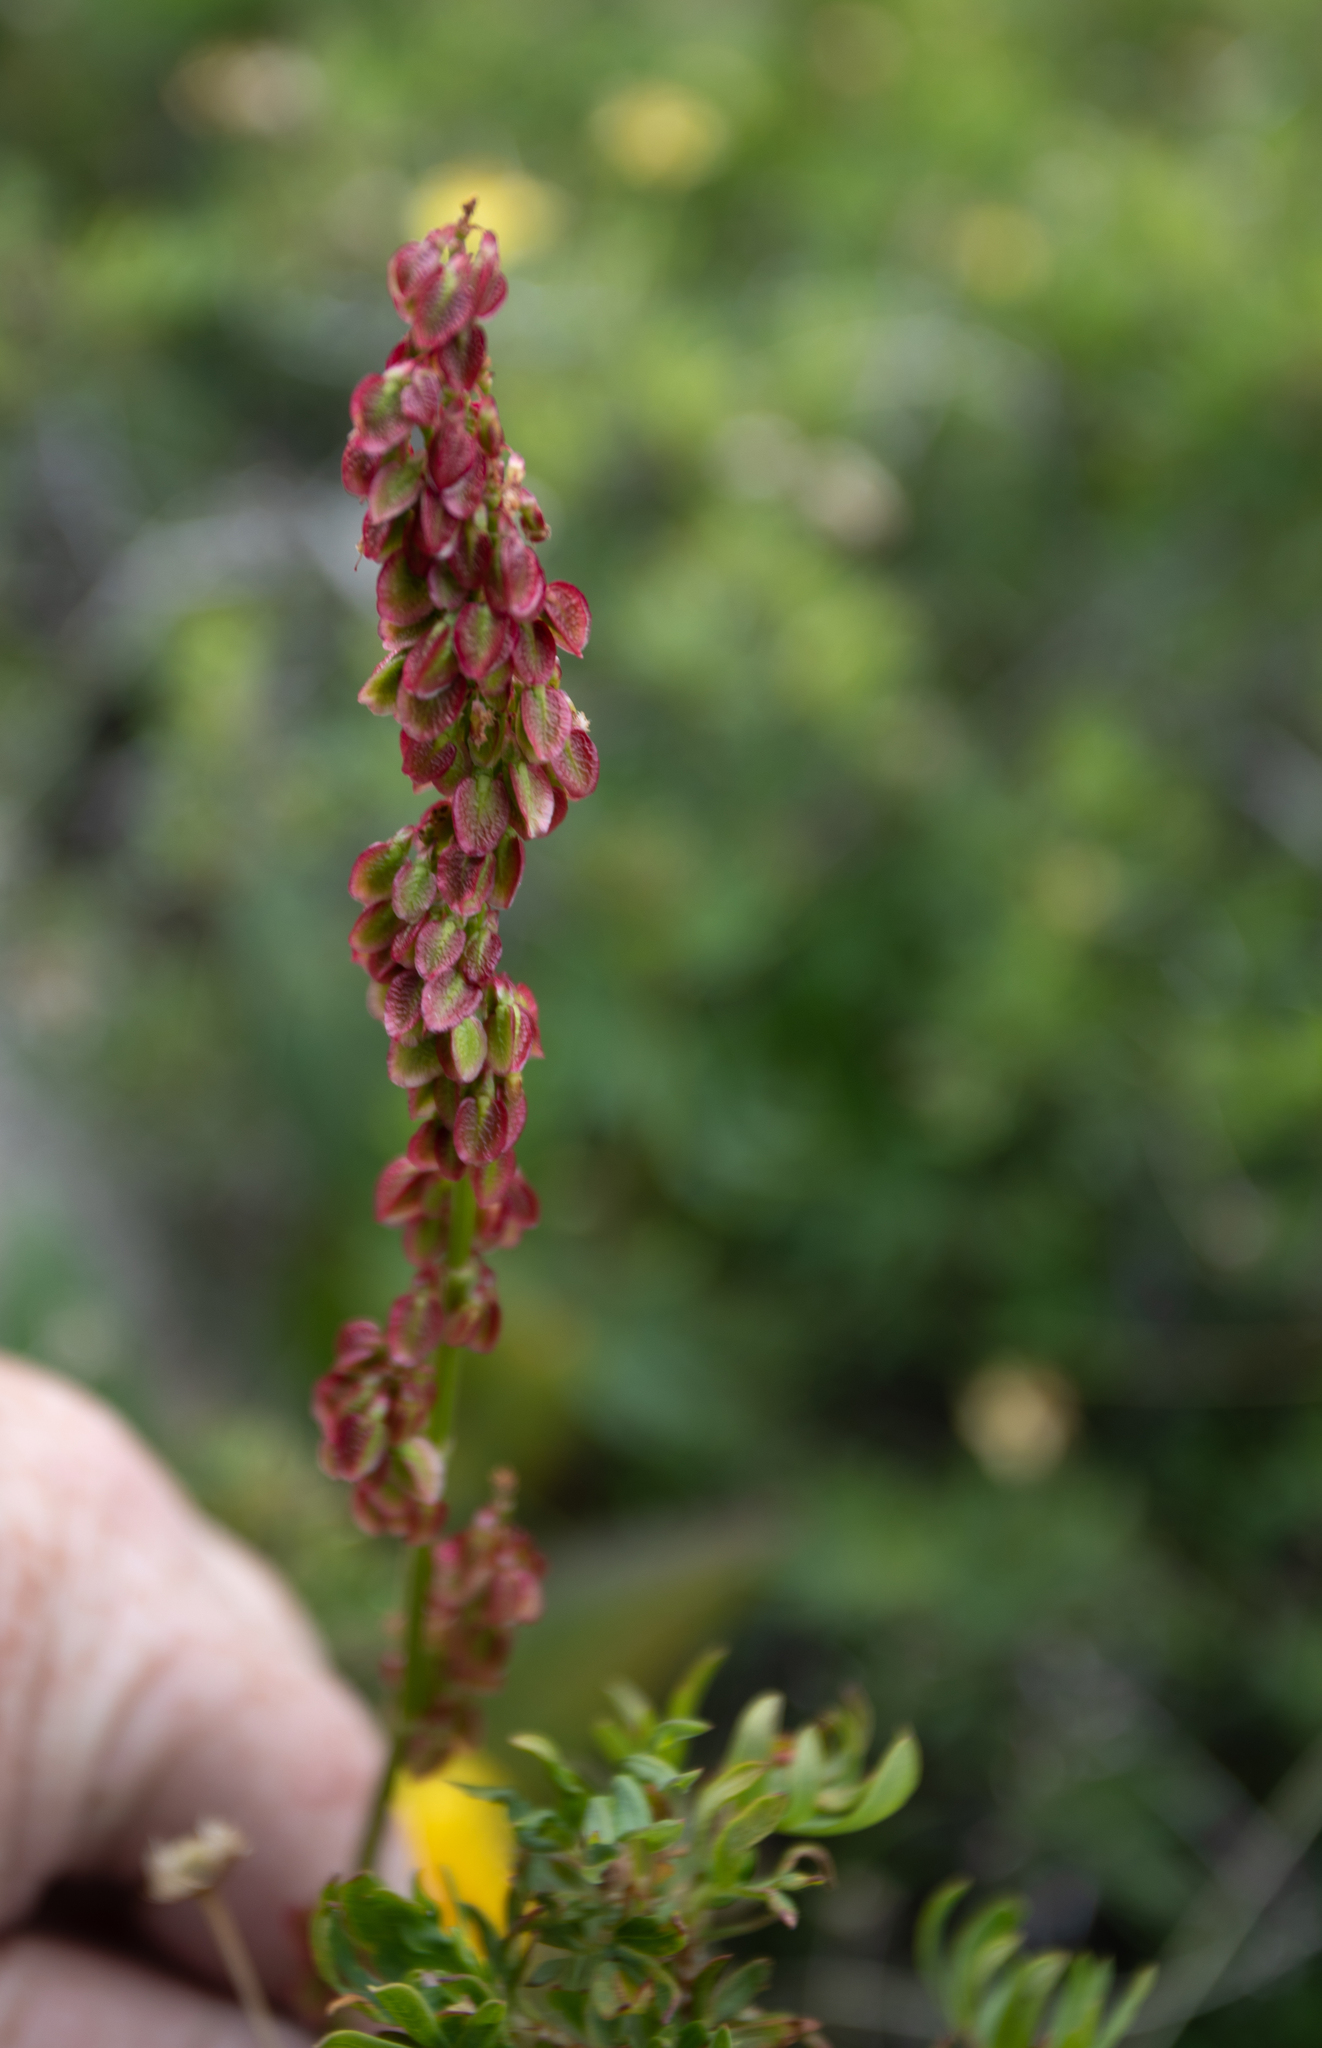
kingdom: Plantae
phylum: Tracheophyta
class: Magnoliopsida
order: Caryophyllales
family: Polygonaceae
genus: Rheum
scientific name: Rheum compactum
